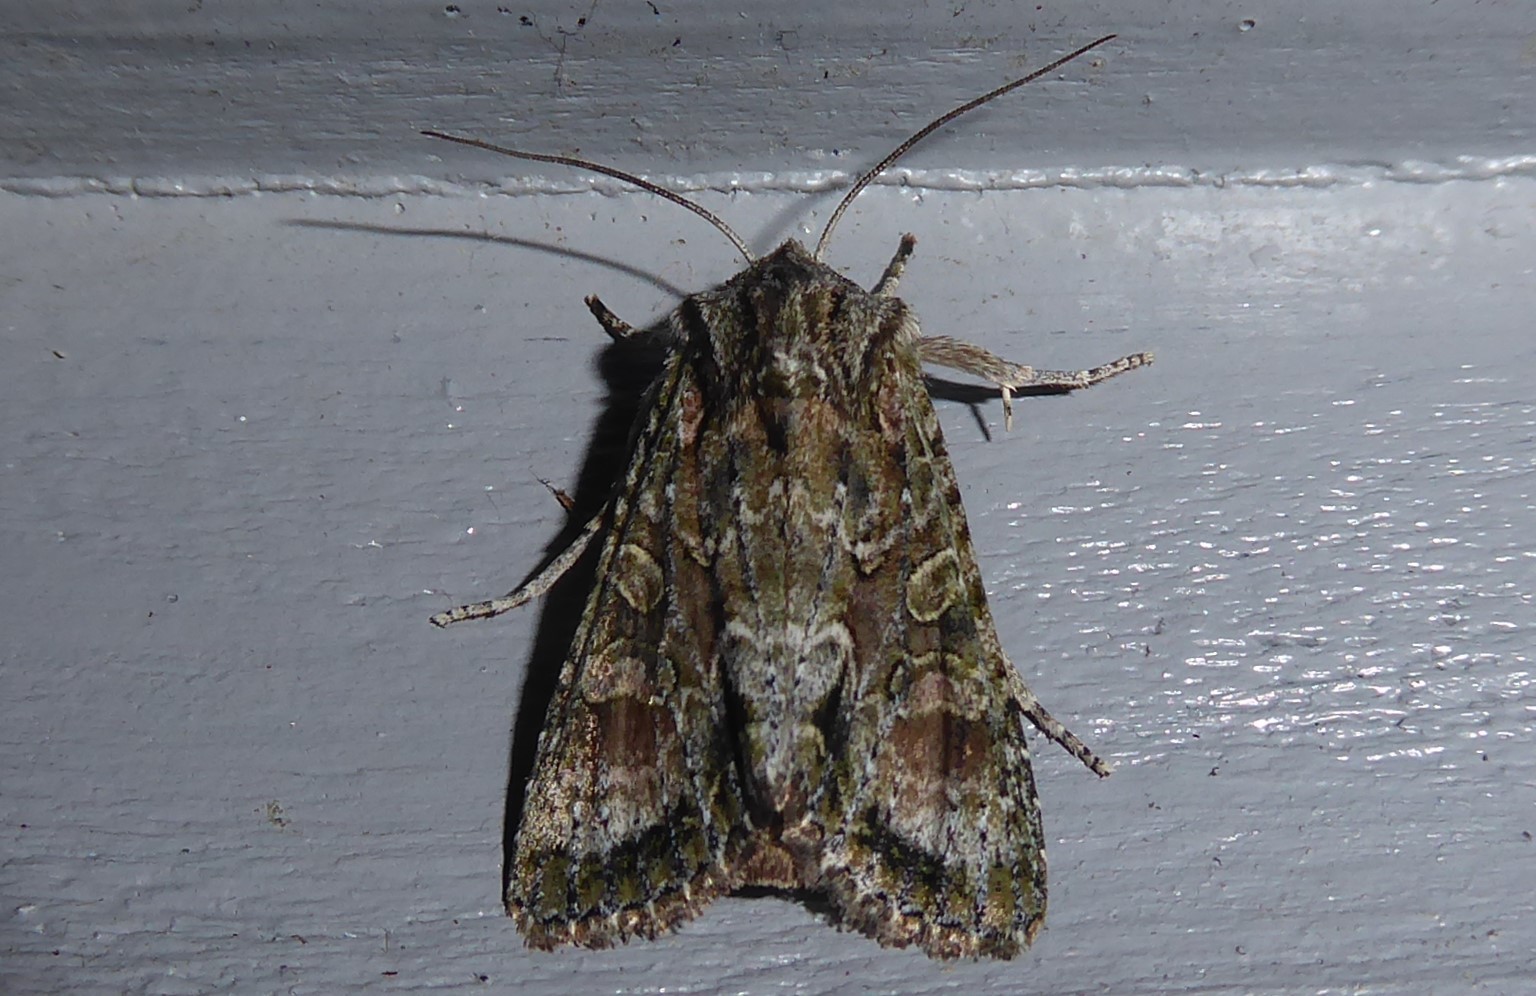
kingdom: Animalia
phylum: Arthropoda
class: Insecta
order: Lepidoptera
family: Noctuidae
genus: Ichneutica
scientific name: Ichneutica mutans
